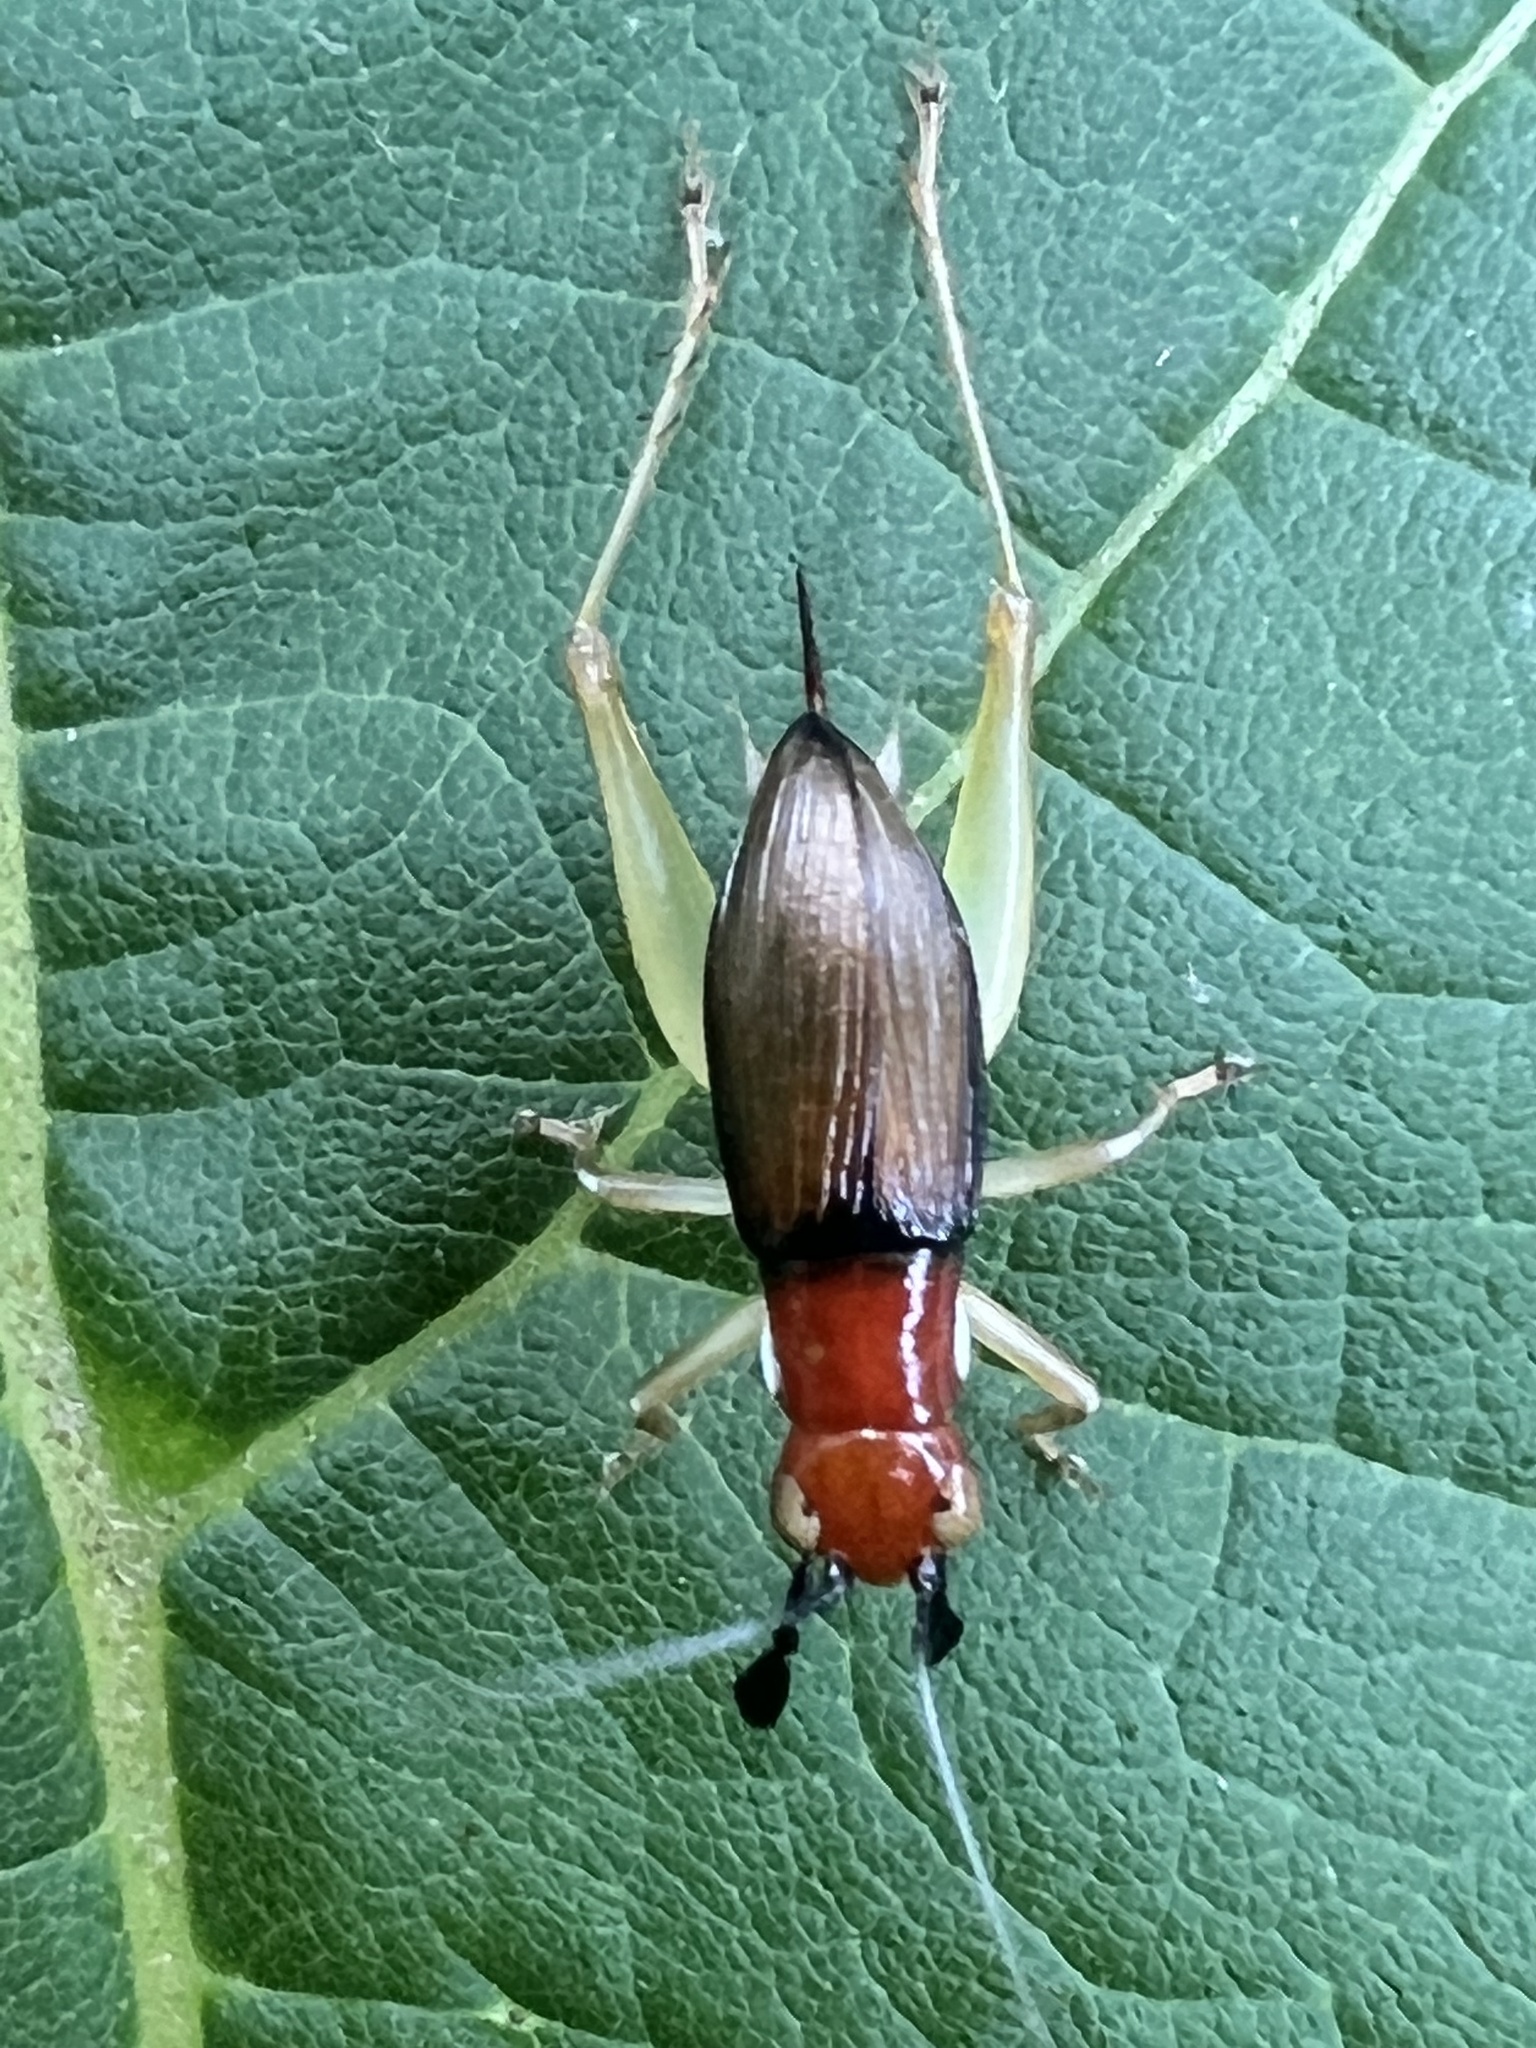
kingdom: Animalia
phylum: Arthropoda
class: Insecta
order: Orthoptera
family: Trigonidiidae
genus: Phyllopalpus
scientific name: Phyllopalpus pulchellus
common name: Handsome trig
